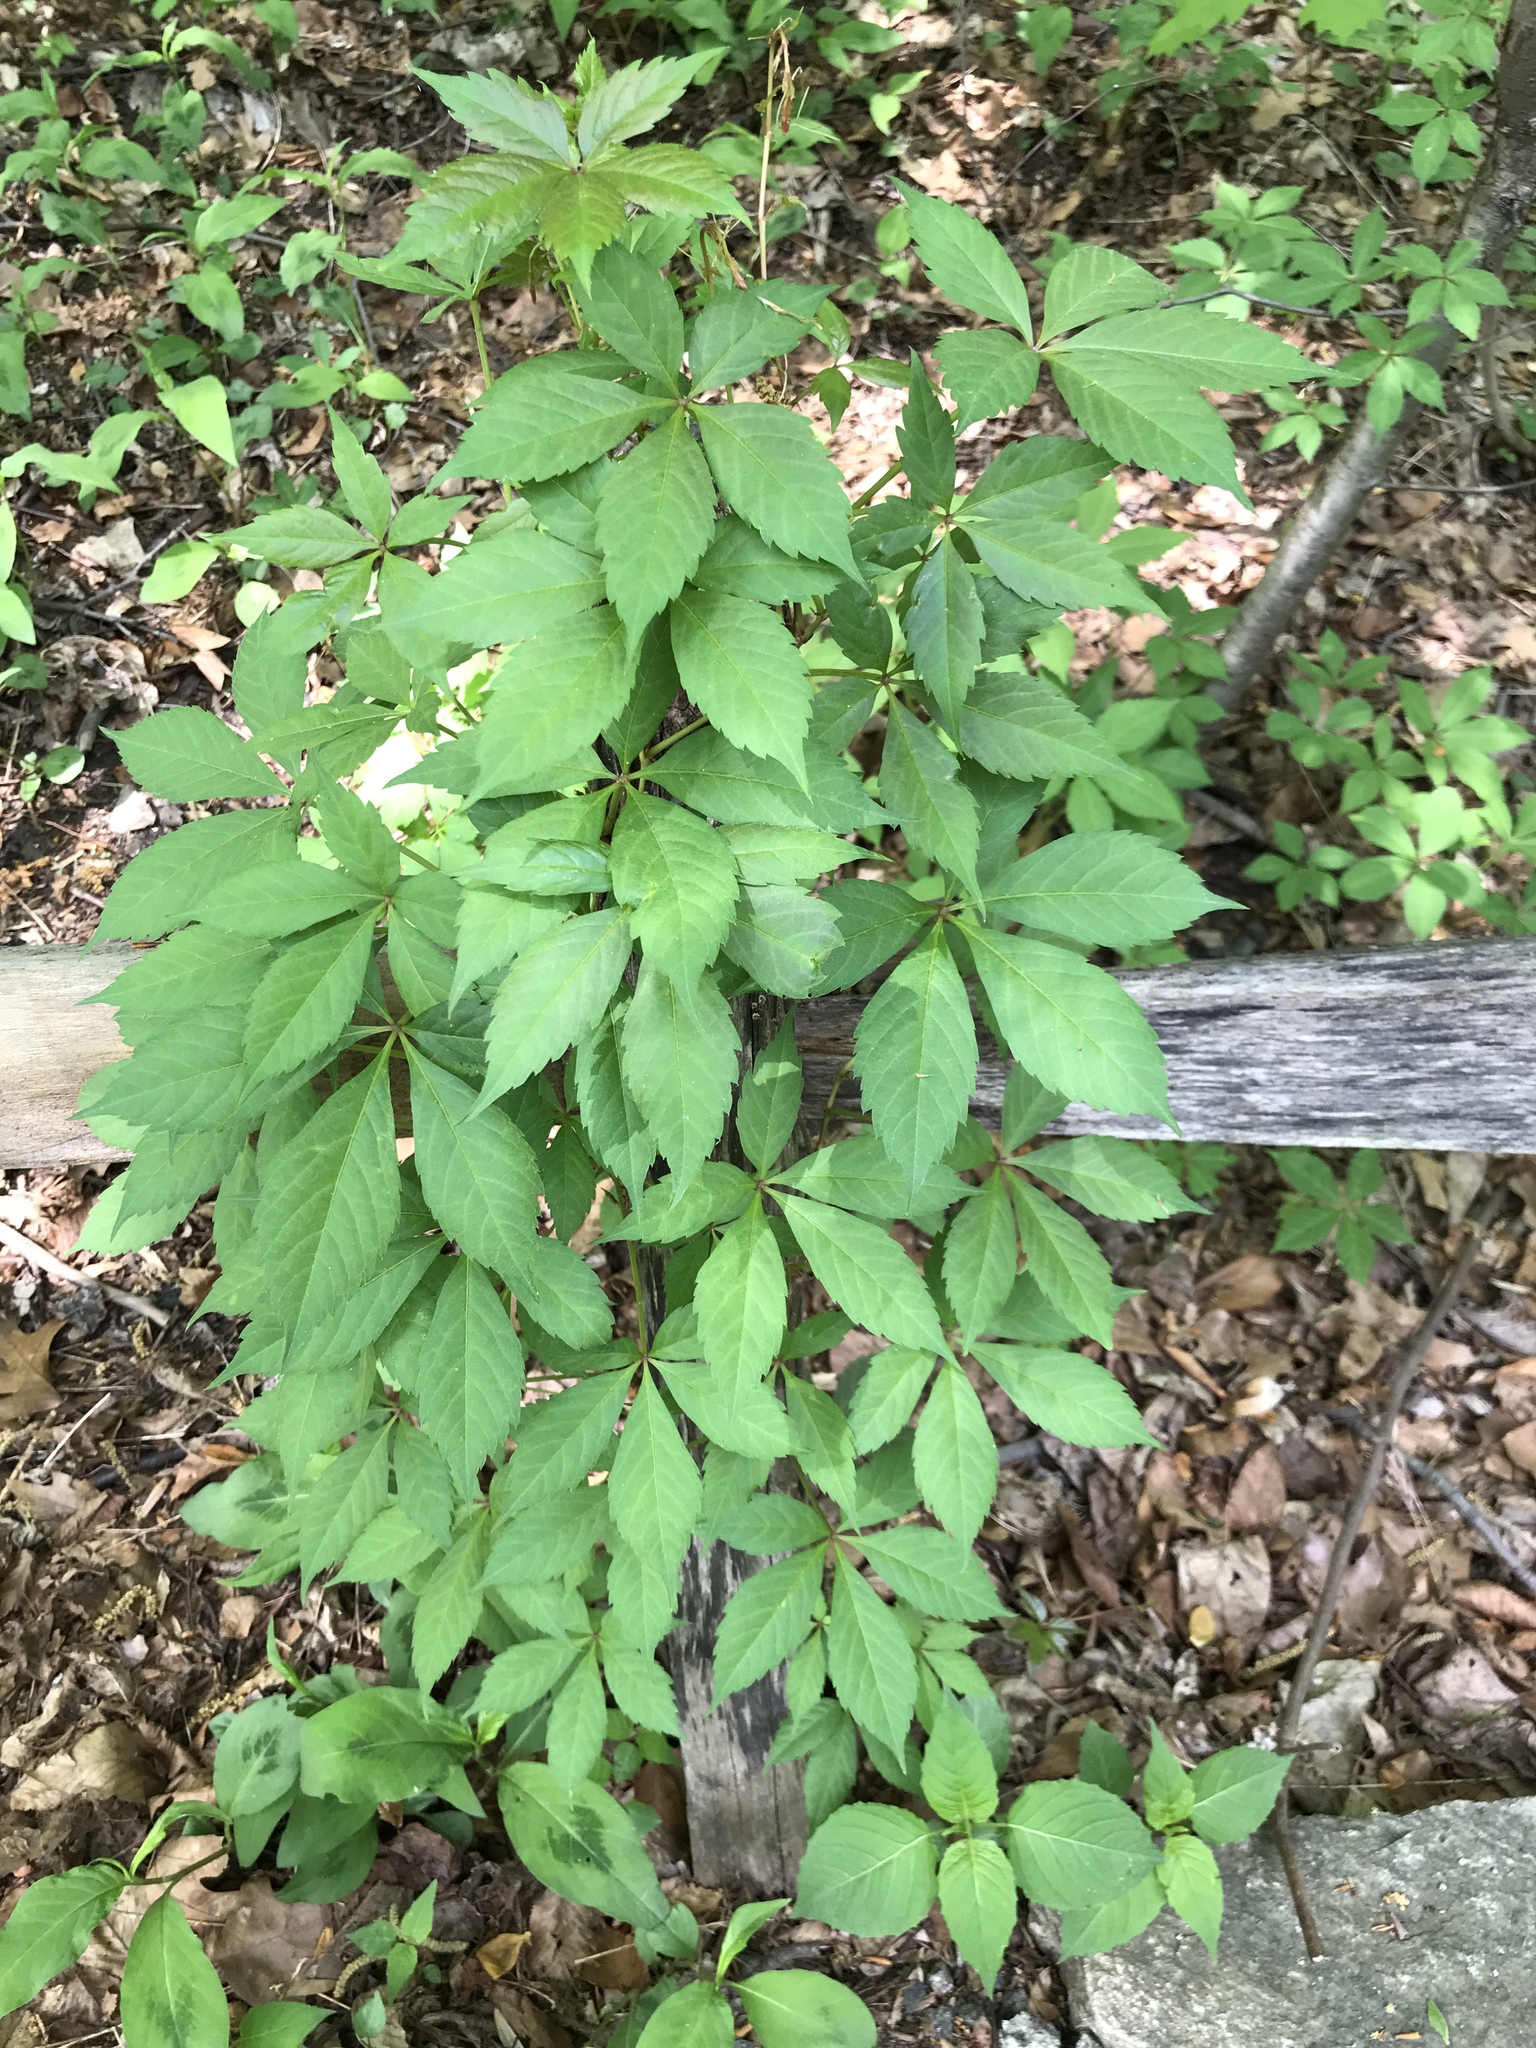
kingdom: Plantae
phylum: Tracheophyta
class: Magnoliopsida
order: Vitales
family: Vitaceae
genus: Parthenocissus
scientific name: Parthenocissus quinquefolia
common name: Virginia-creeper
